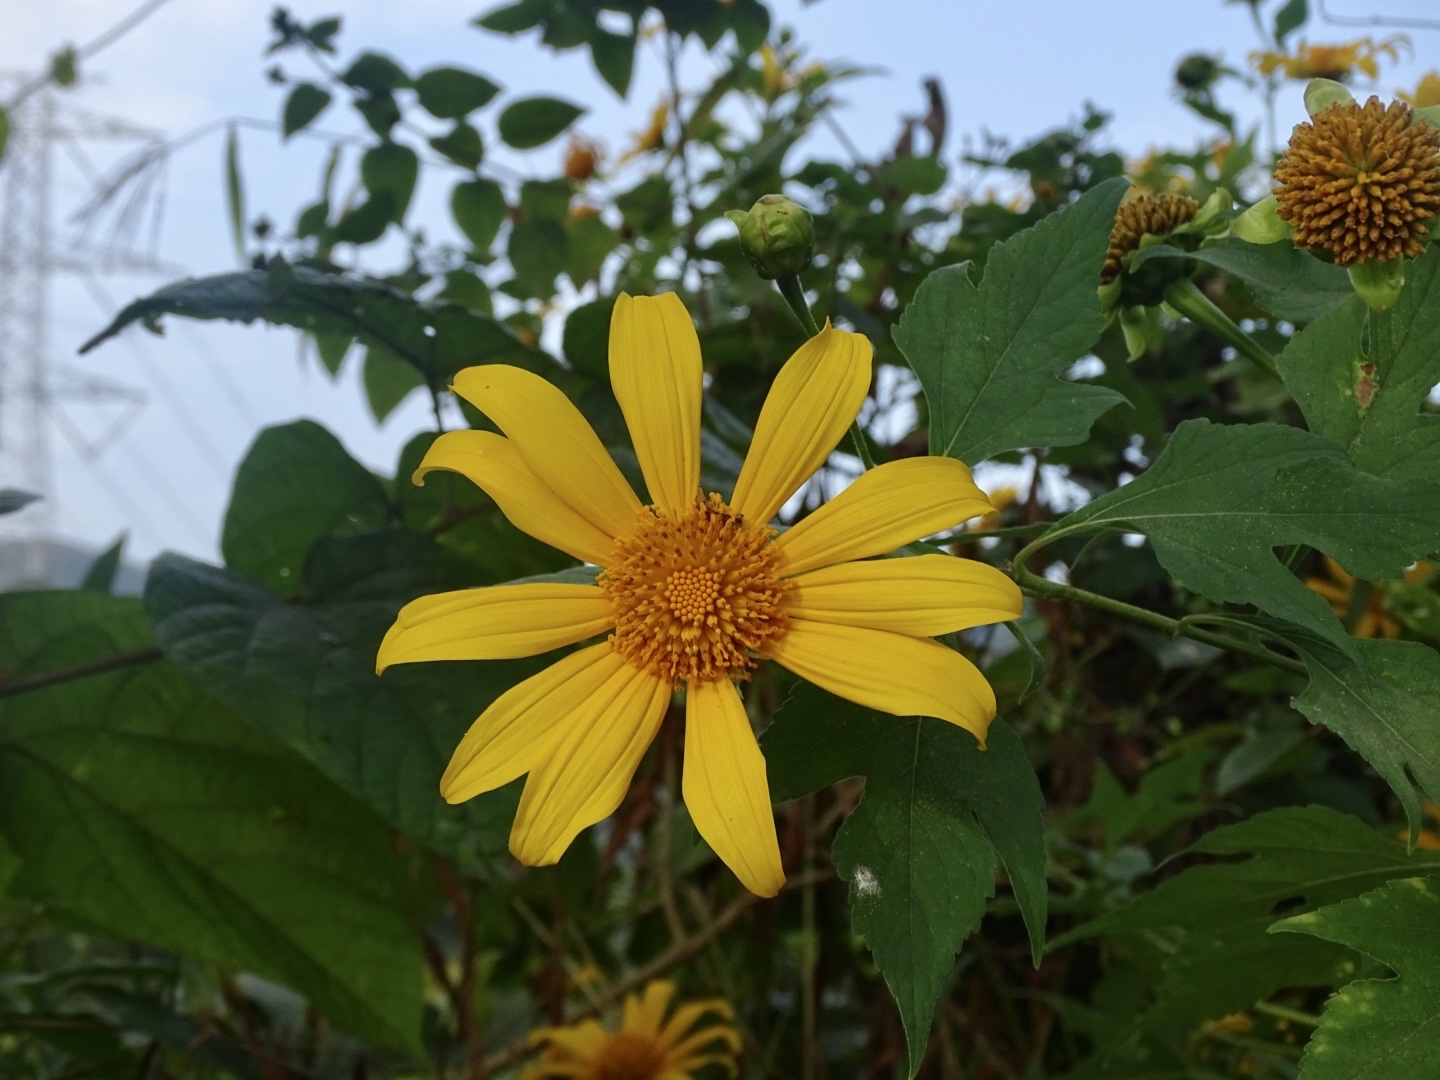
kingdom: Plantae
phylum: Tracheophyta
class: Magnoliopsida
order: Asterales
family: Asteraceae
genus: Tithonia
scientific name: Tithonia diversifolia
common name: Tree marigold
